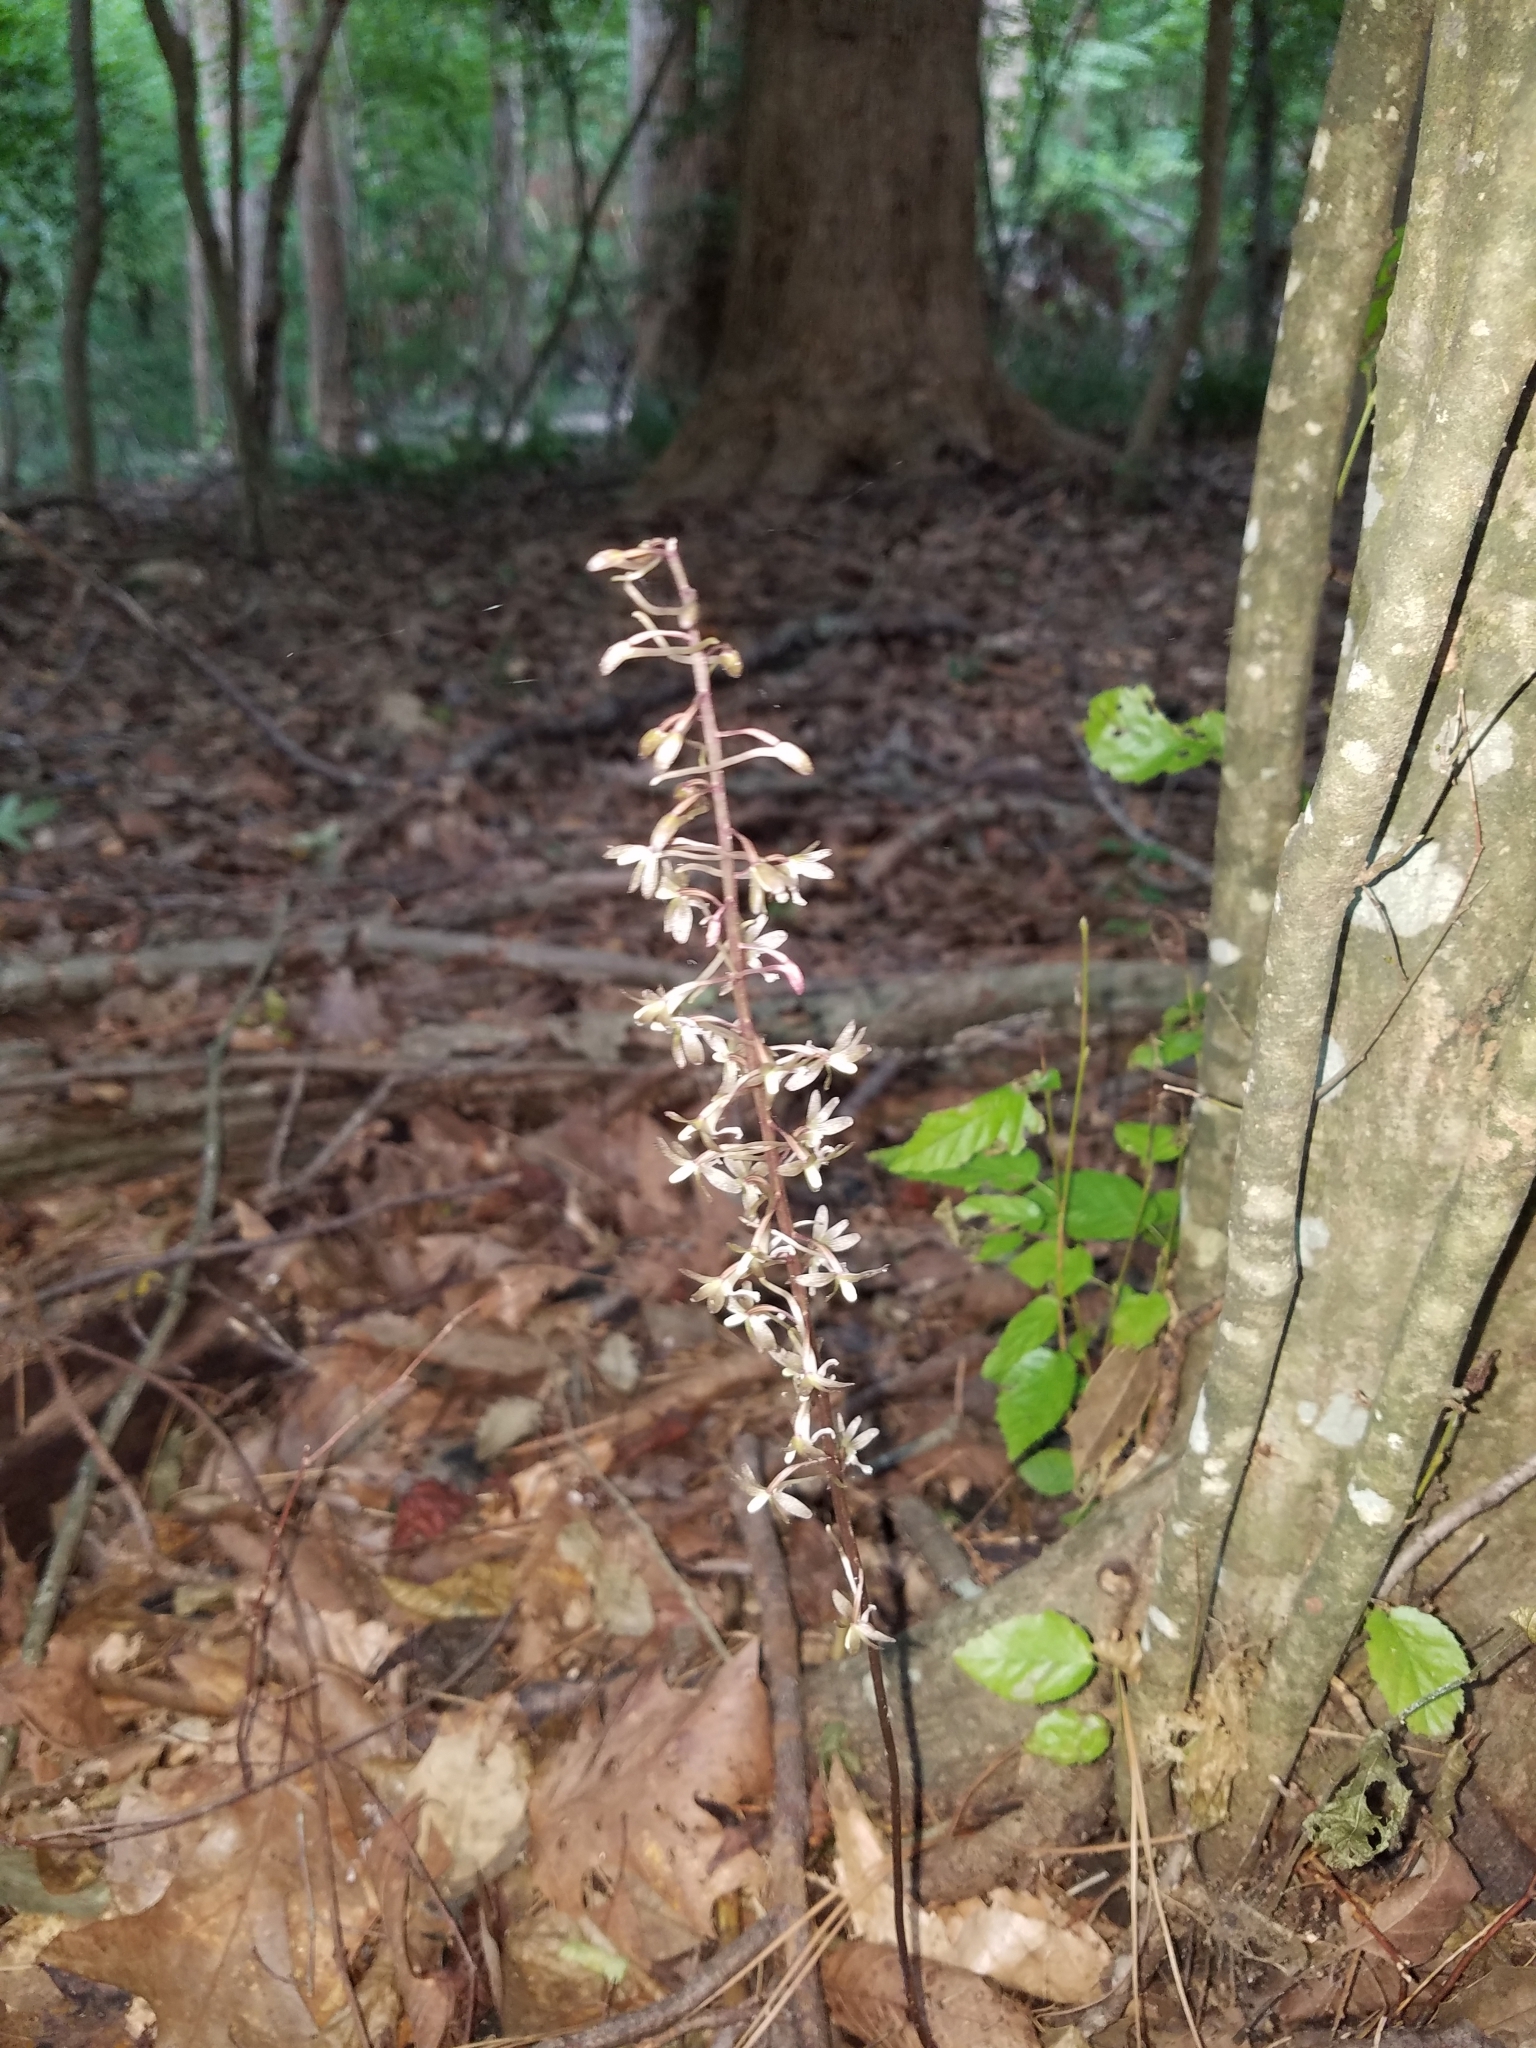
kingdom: Plantae
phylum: Tracheophyta
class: Liliopsida
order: Asparagales
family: Orchidaceae
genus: Tipularia
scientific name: Tipularia discolor
